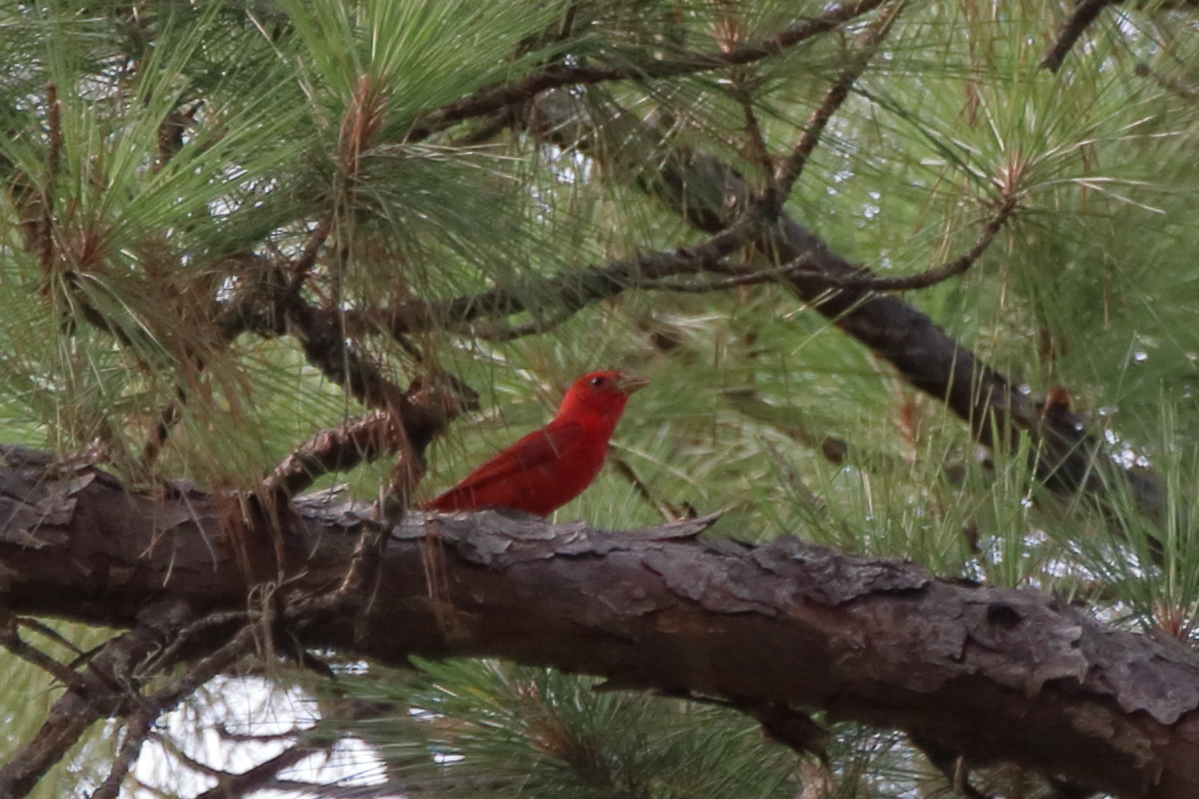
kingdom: Animalia
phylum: Chordata
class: Aves
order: Passeriformes
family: Cardinalidae
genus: Piranga
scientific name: Piranga rubra
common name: Summer tanager
